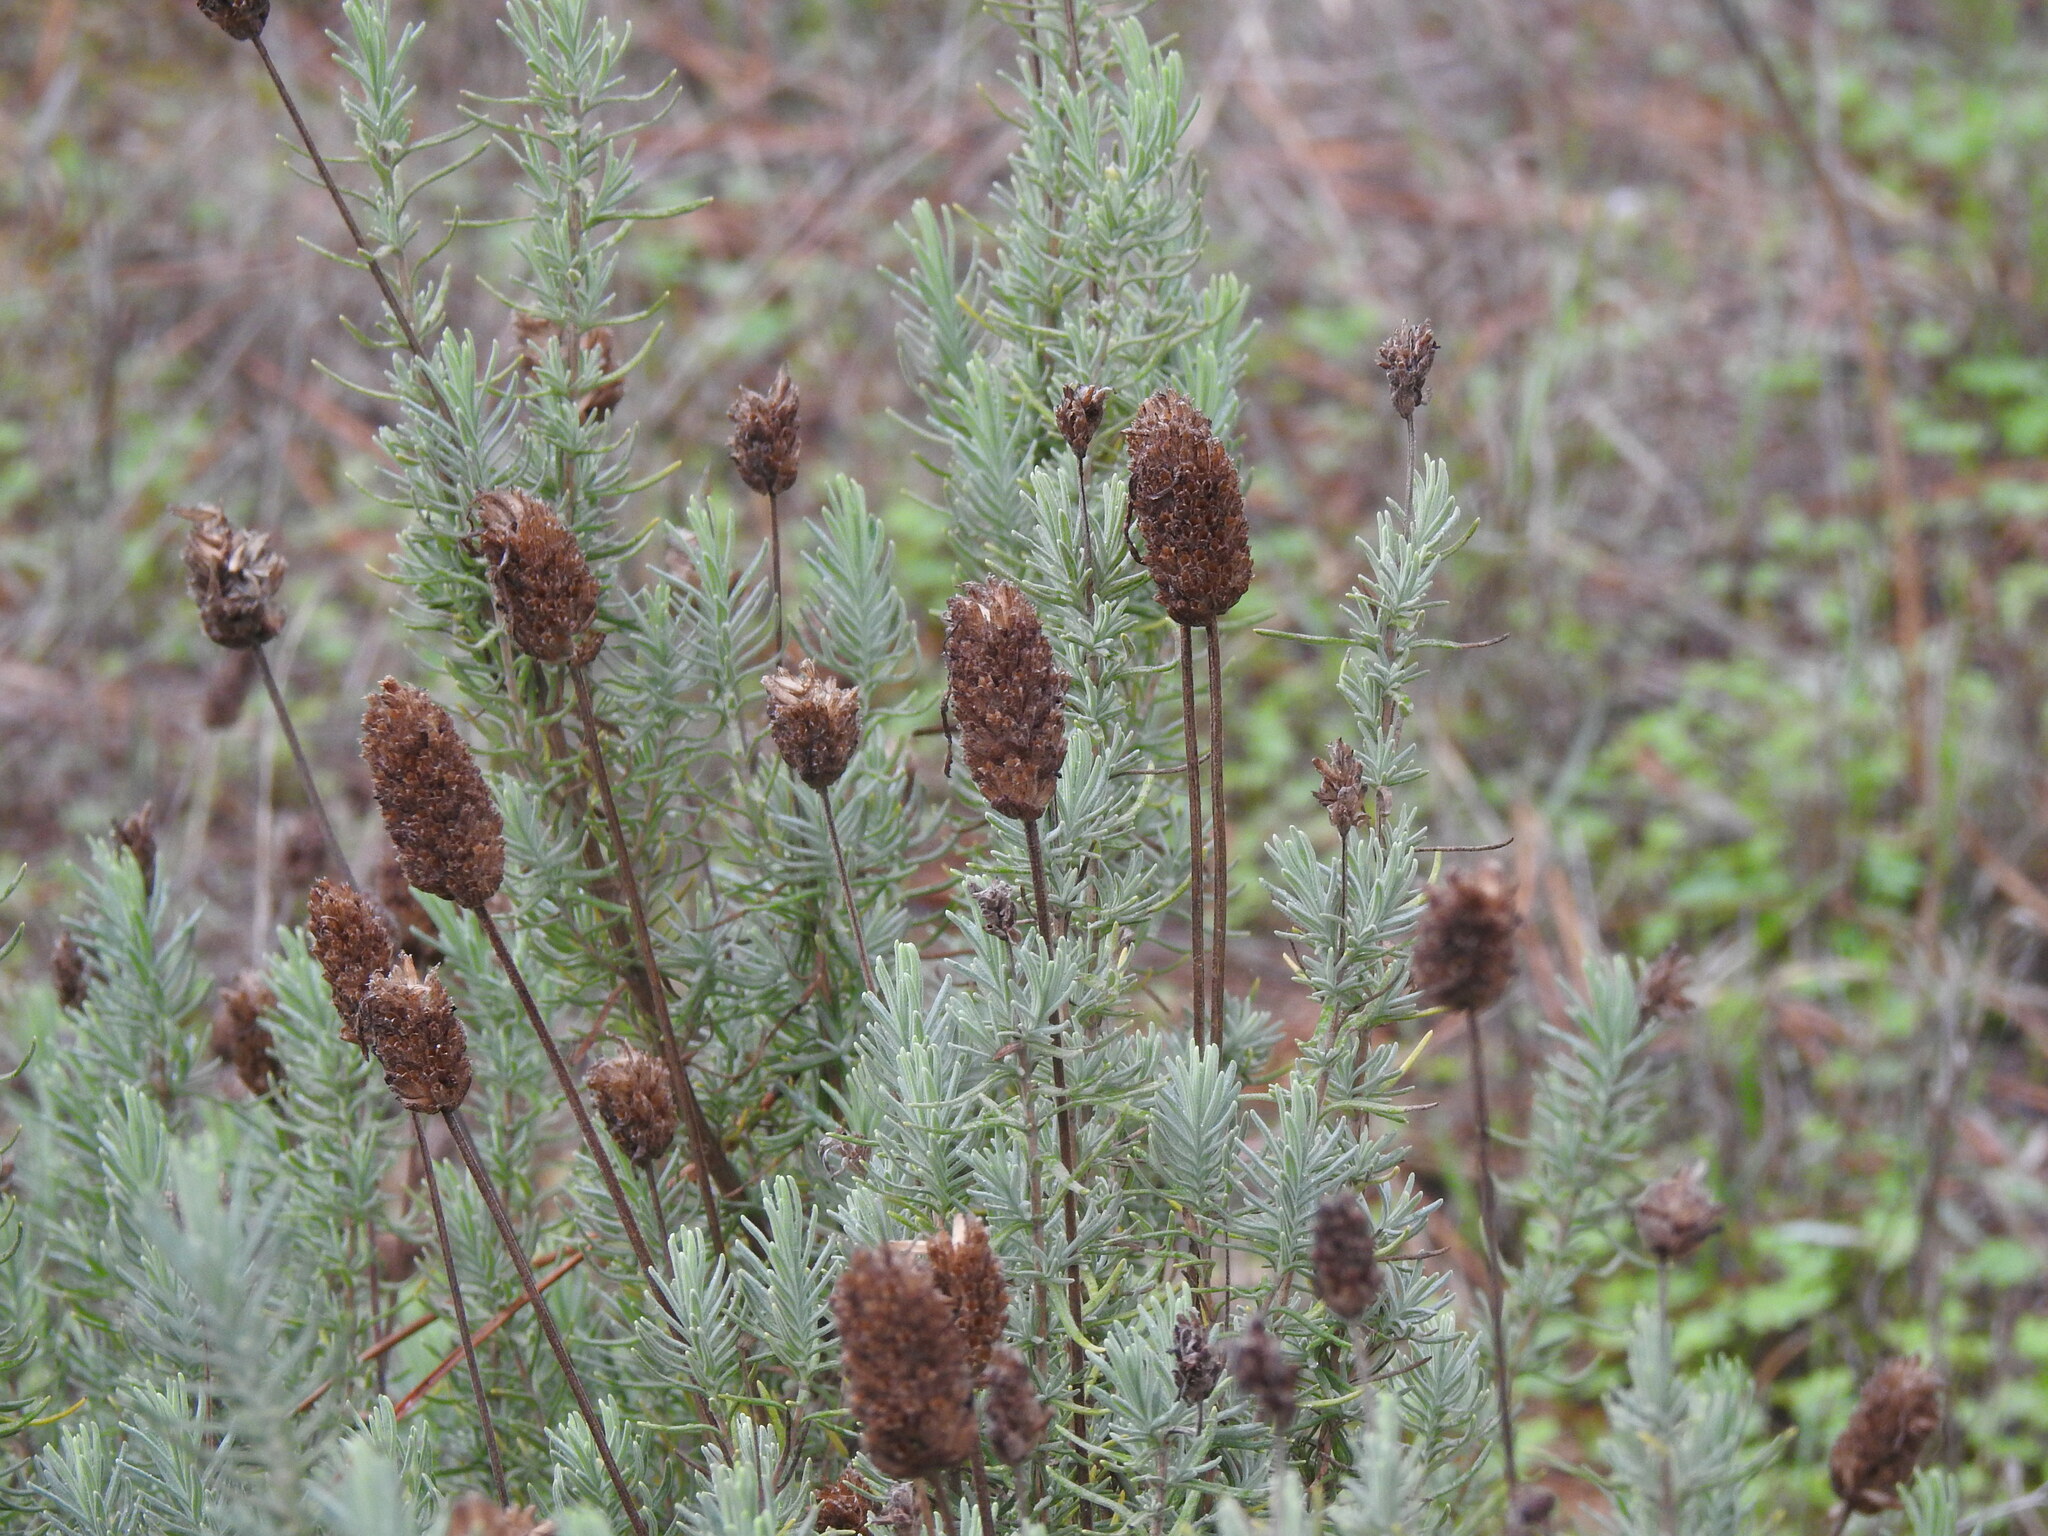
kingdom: Plantae
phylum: Tracheophyta
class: Magnoliopsida
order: Lamiales
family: Lamiaceae
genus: Lavandula
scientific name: Lavandula pedunculata
